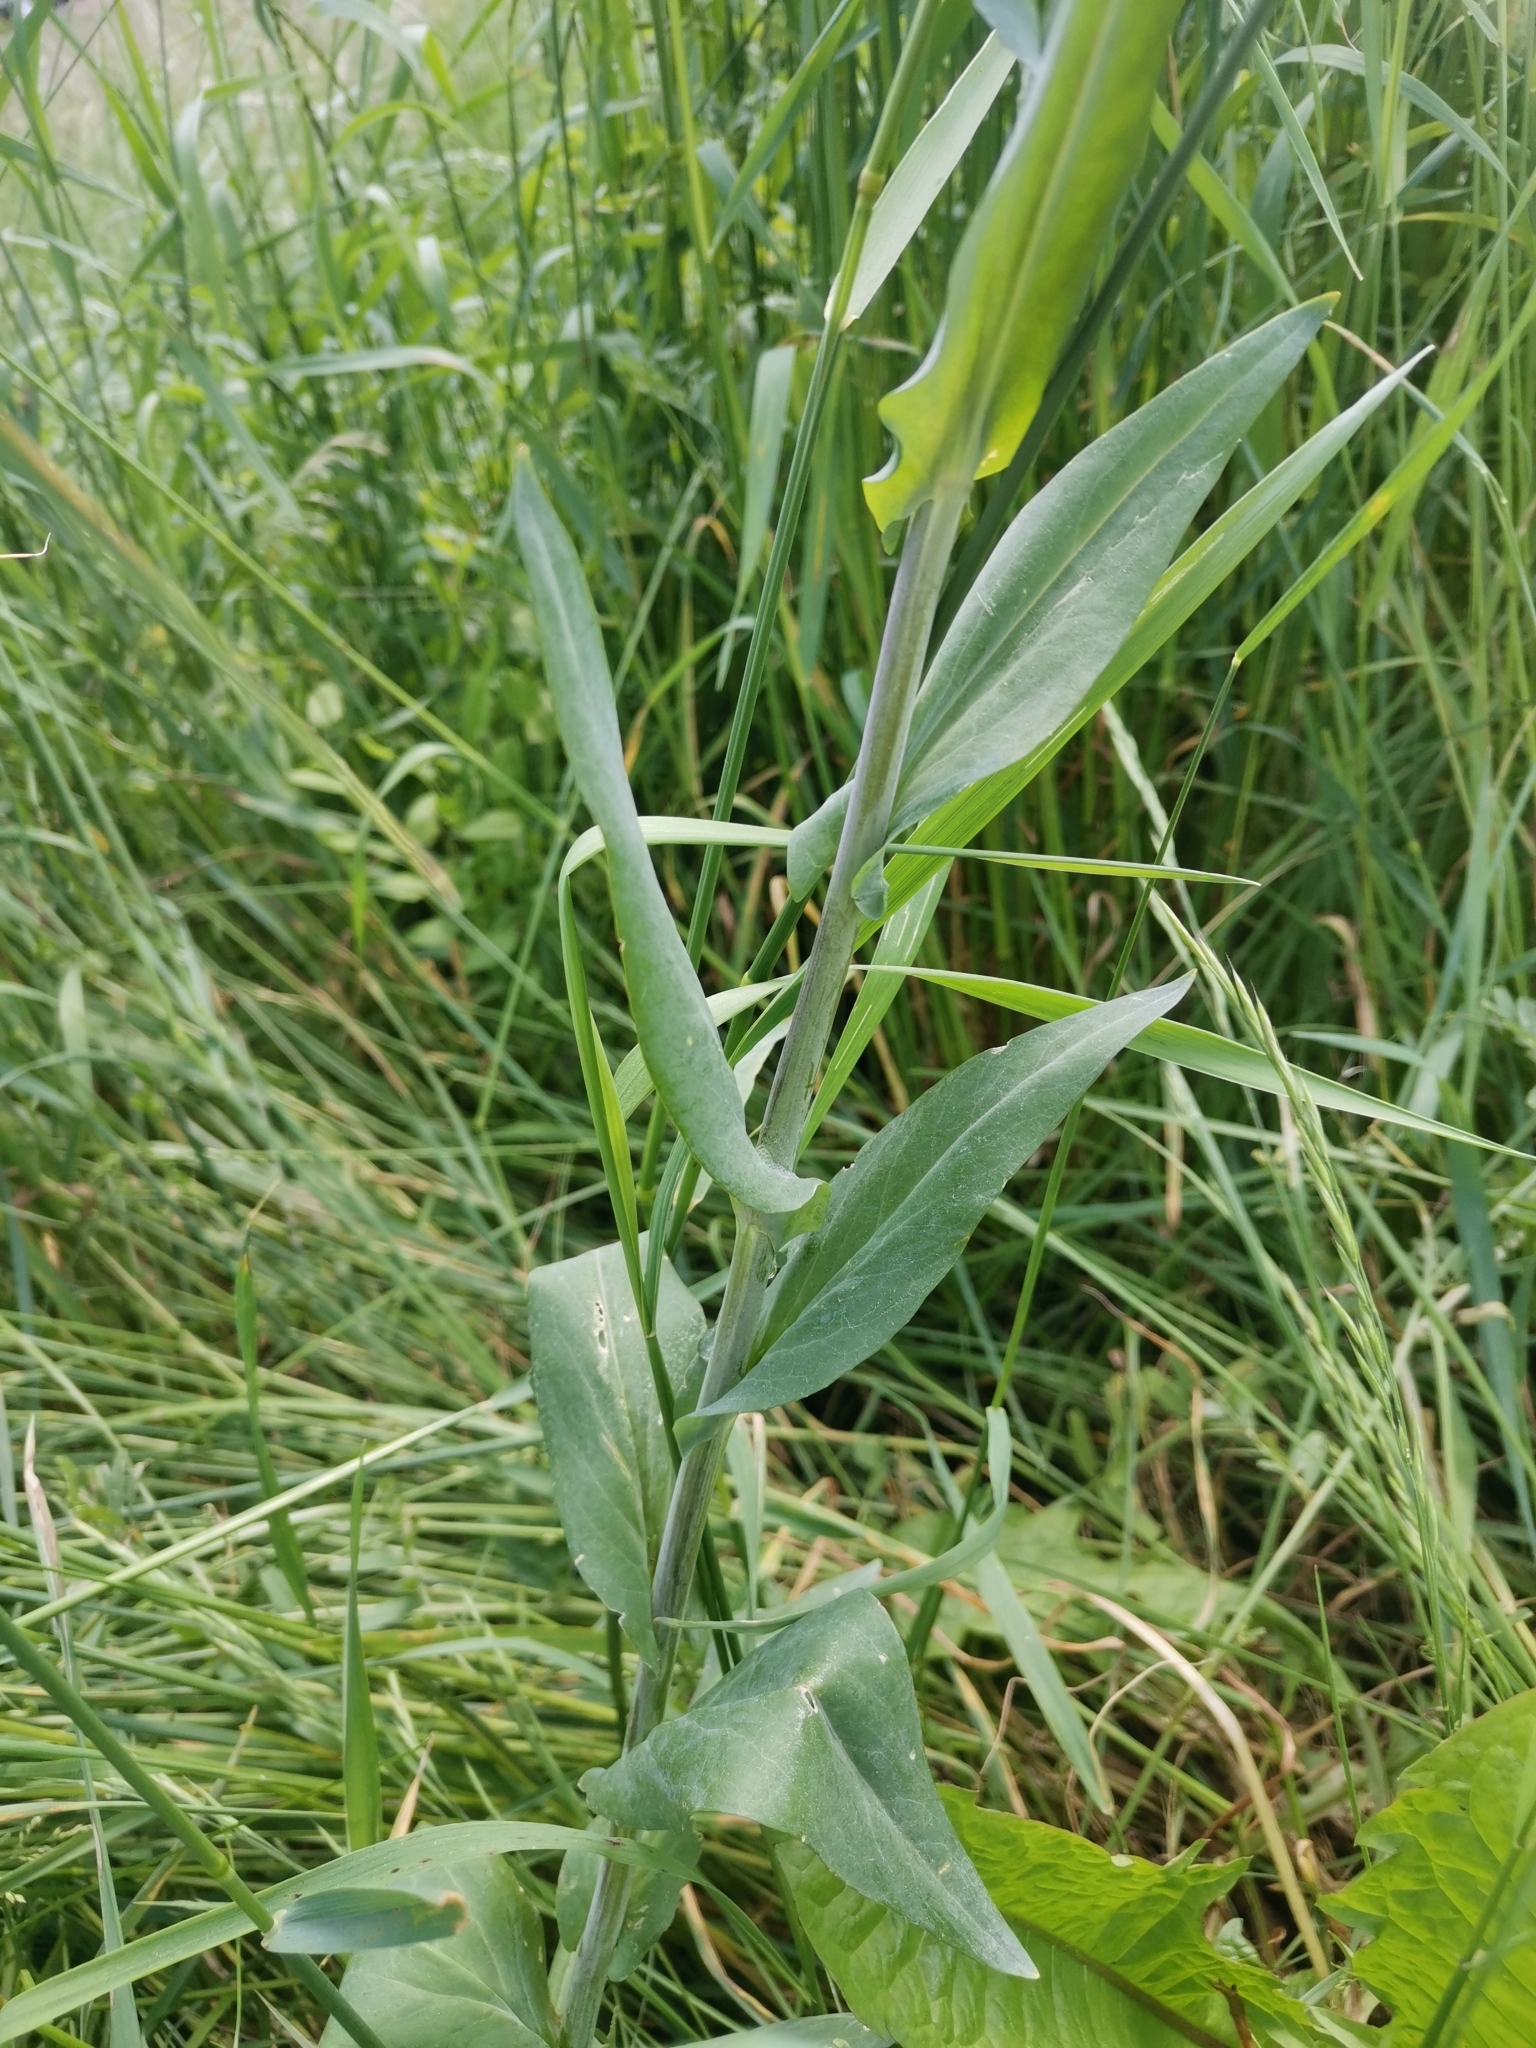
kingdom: Plantae
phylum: Tracheophyta
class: Magnoliopsida
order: Brassicales
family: Brassicaceae
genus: Turritis
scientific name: Turritis glabra
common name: Tower rockcress
